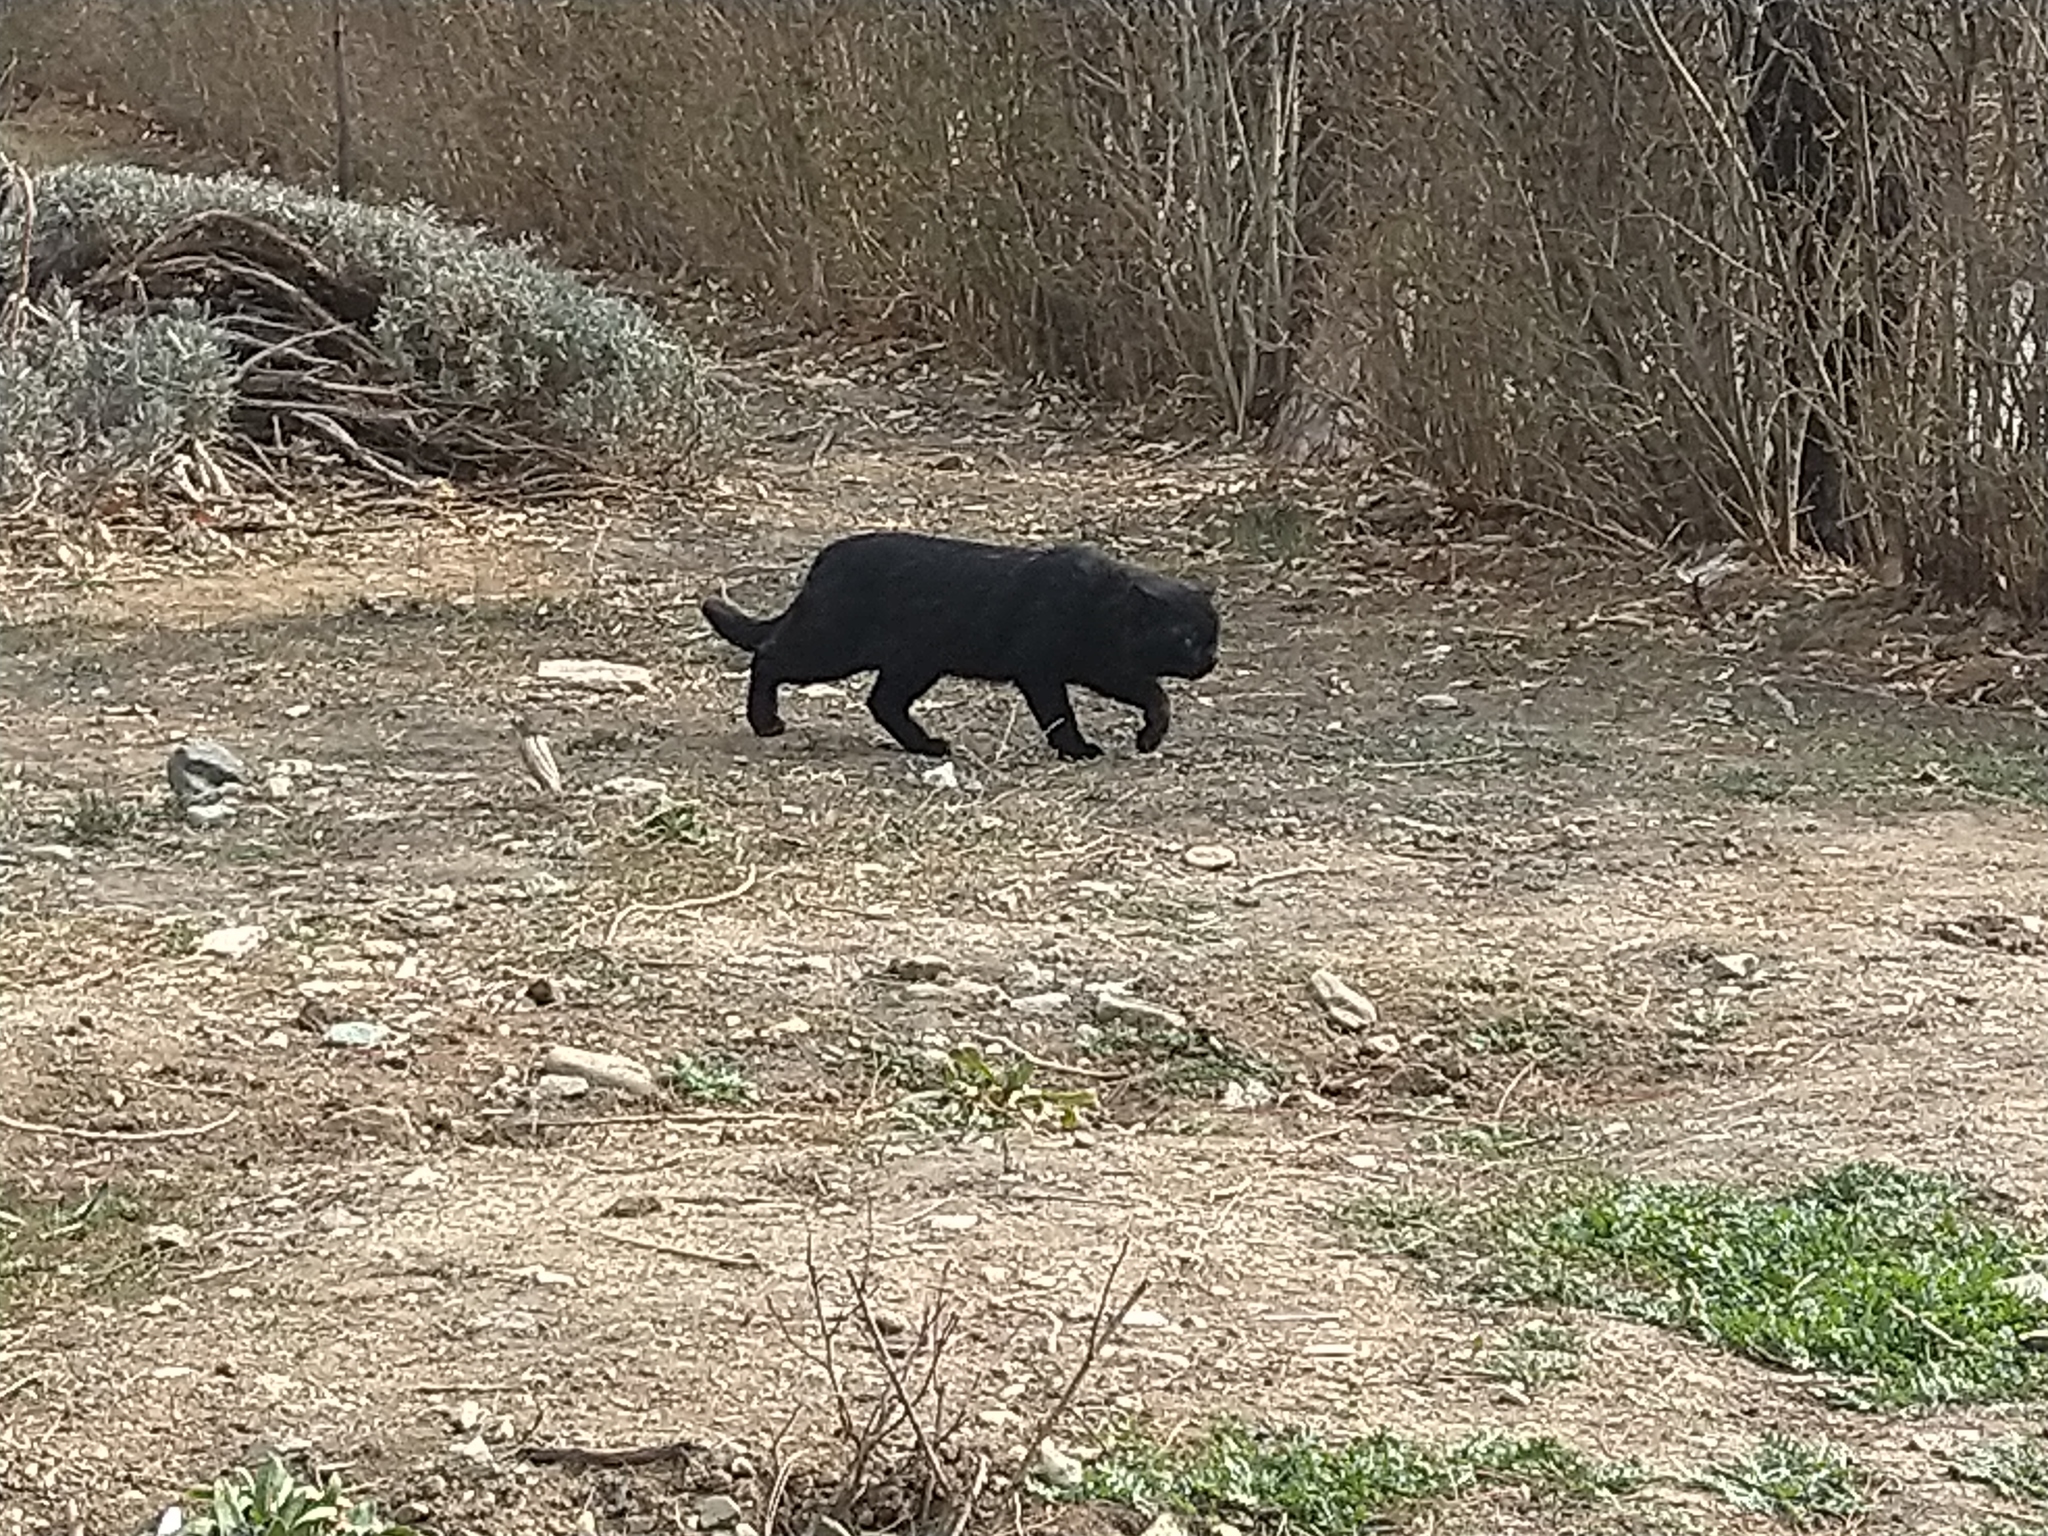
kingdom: Animalia
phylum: Chordata
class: Mammalia
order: Carnivora
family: Felidae
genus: Felis
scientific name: Felis catus
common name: Domestic cat
